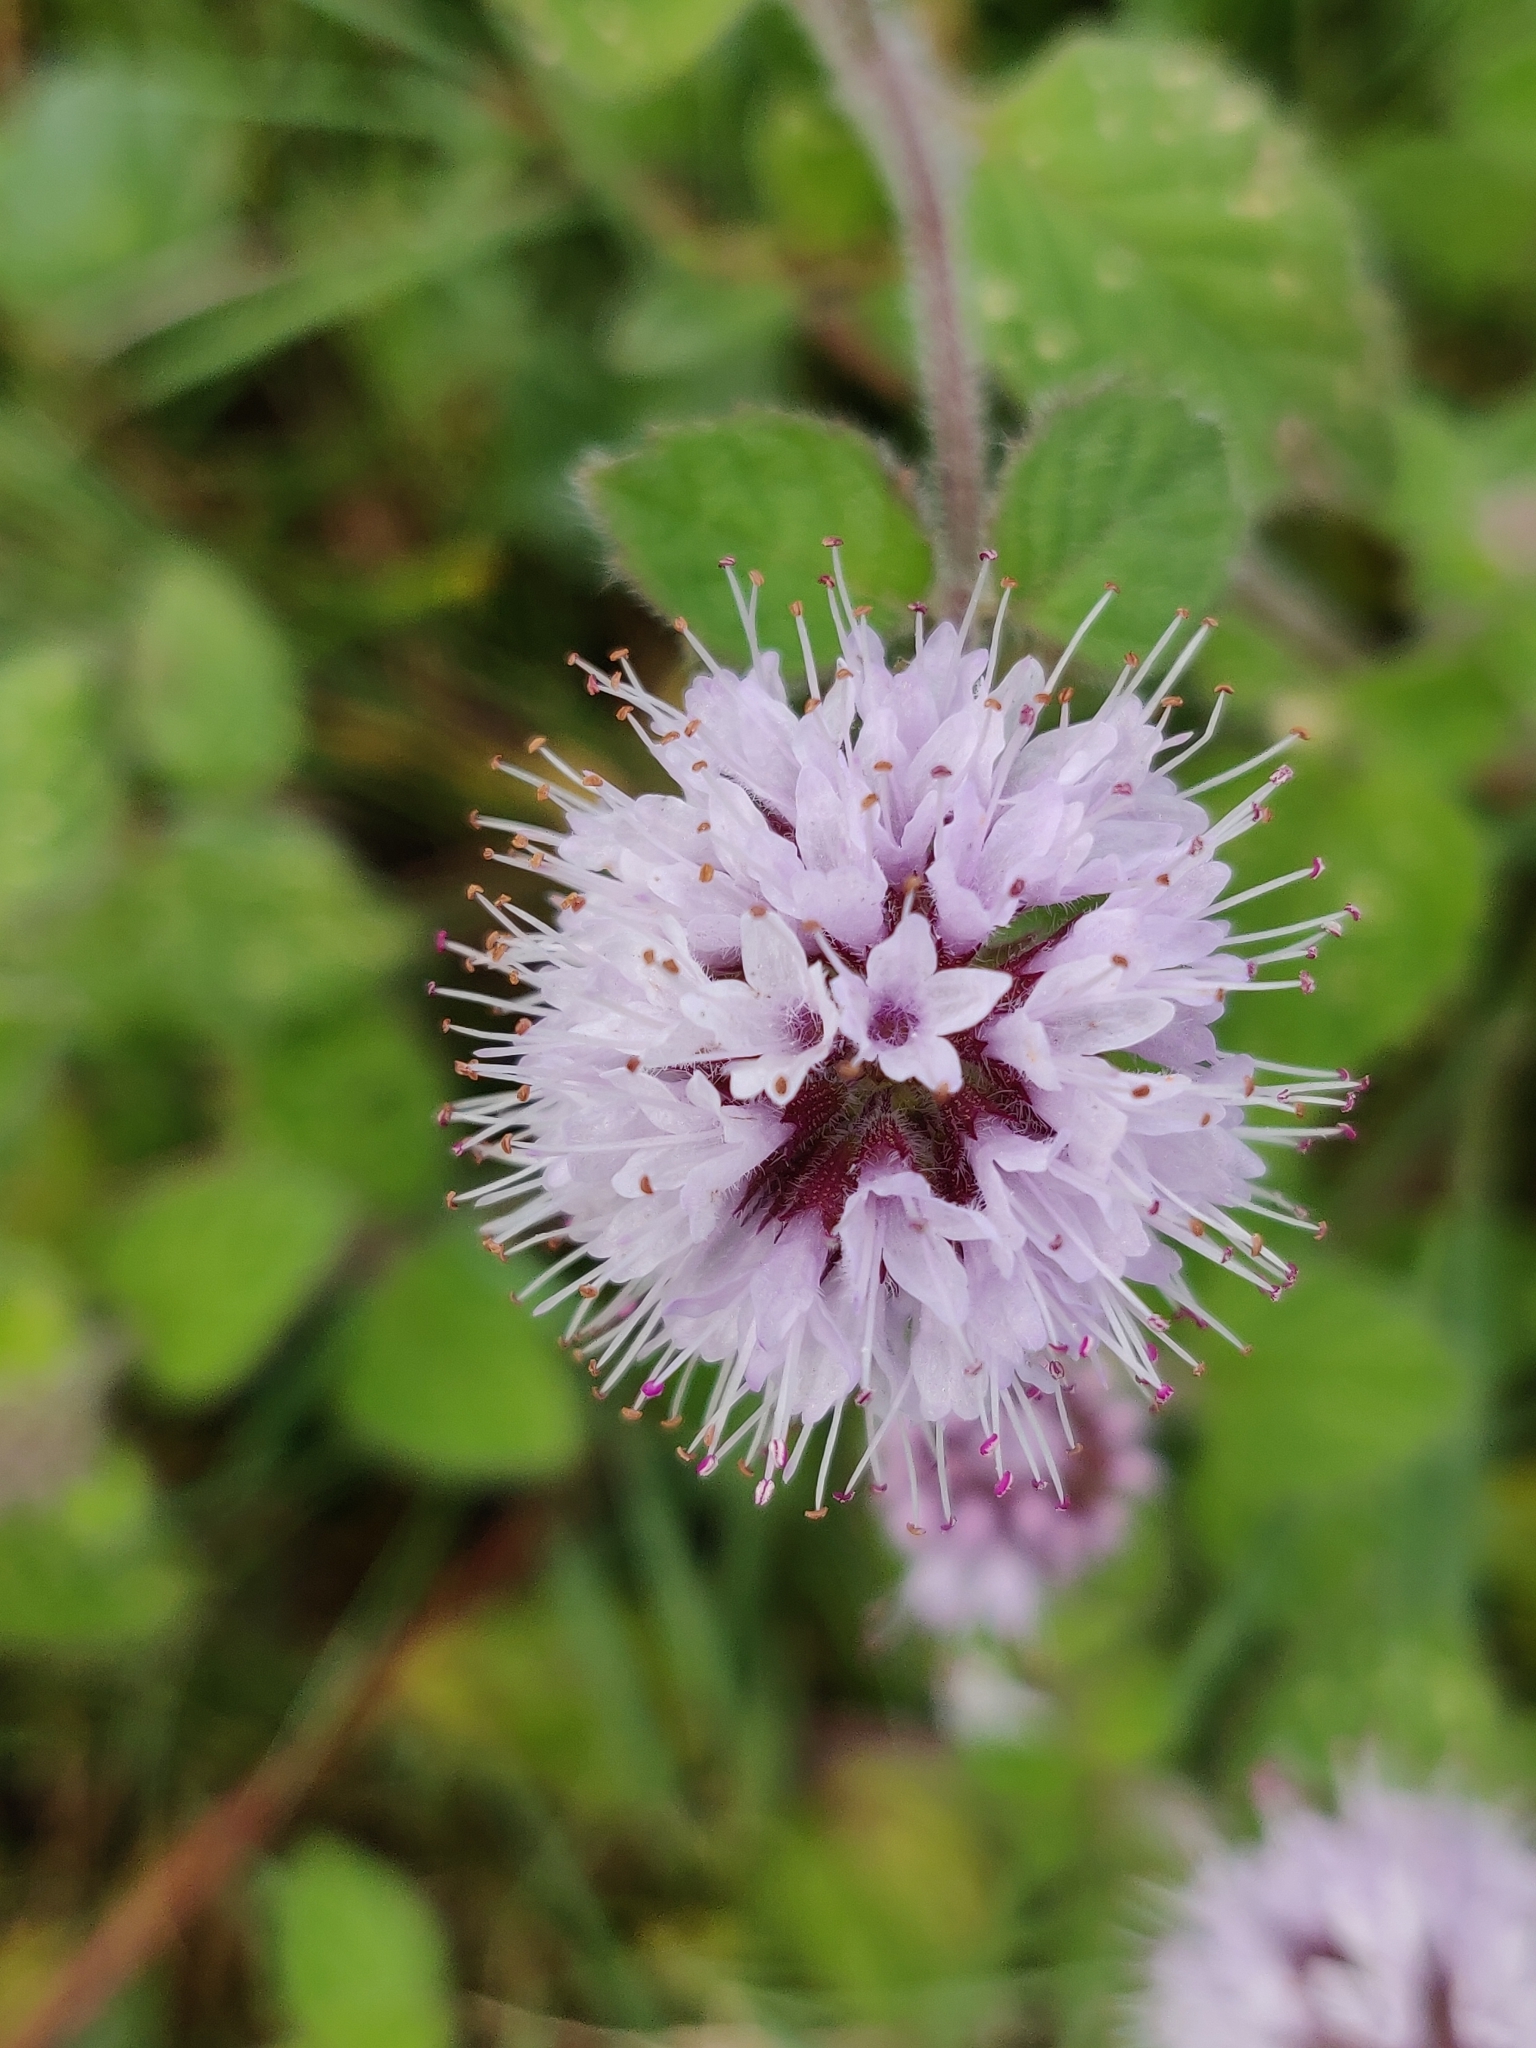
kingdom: Plantae
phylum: Tracheophyta
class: Magnoliopsida
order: Lamiales
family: Lamiaceae
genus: Mentha
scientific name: Mentha aquatica
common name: Water mint
